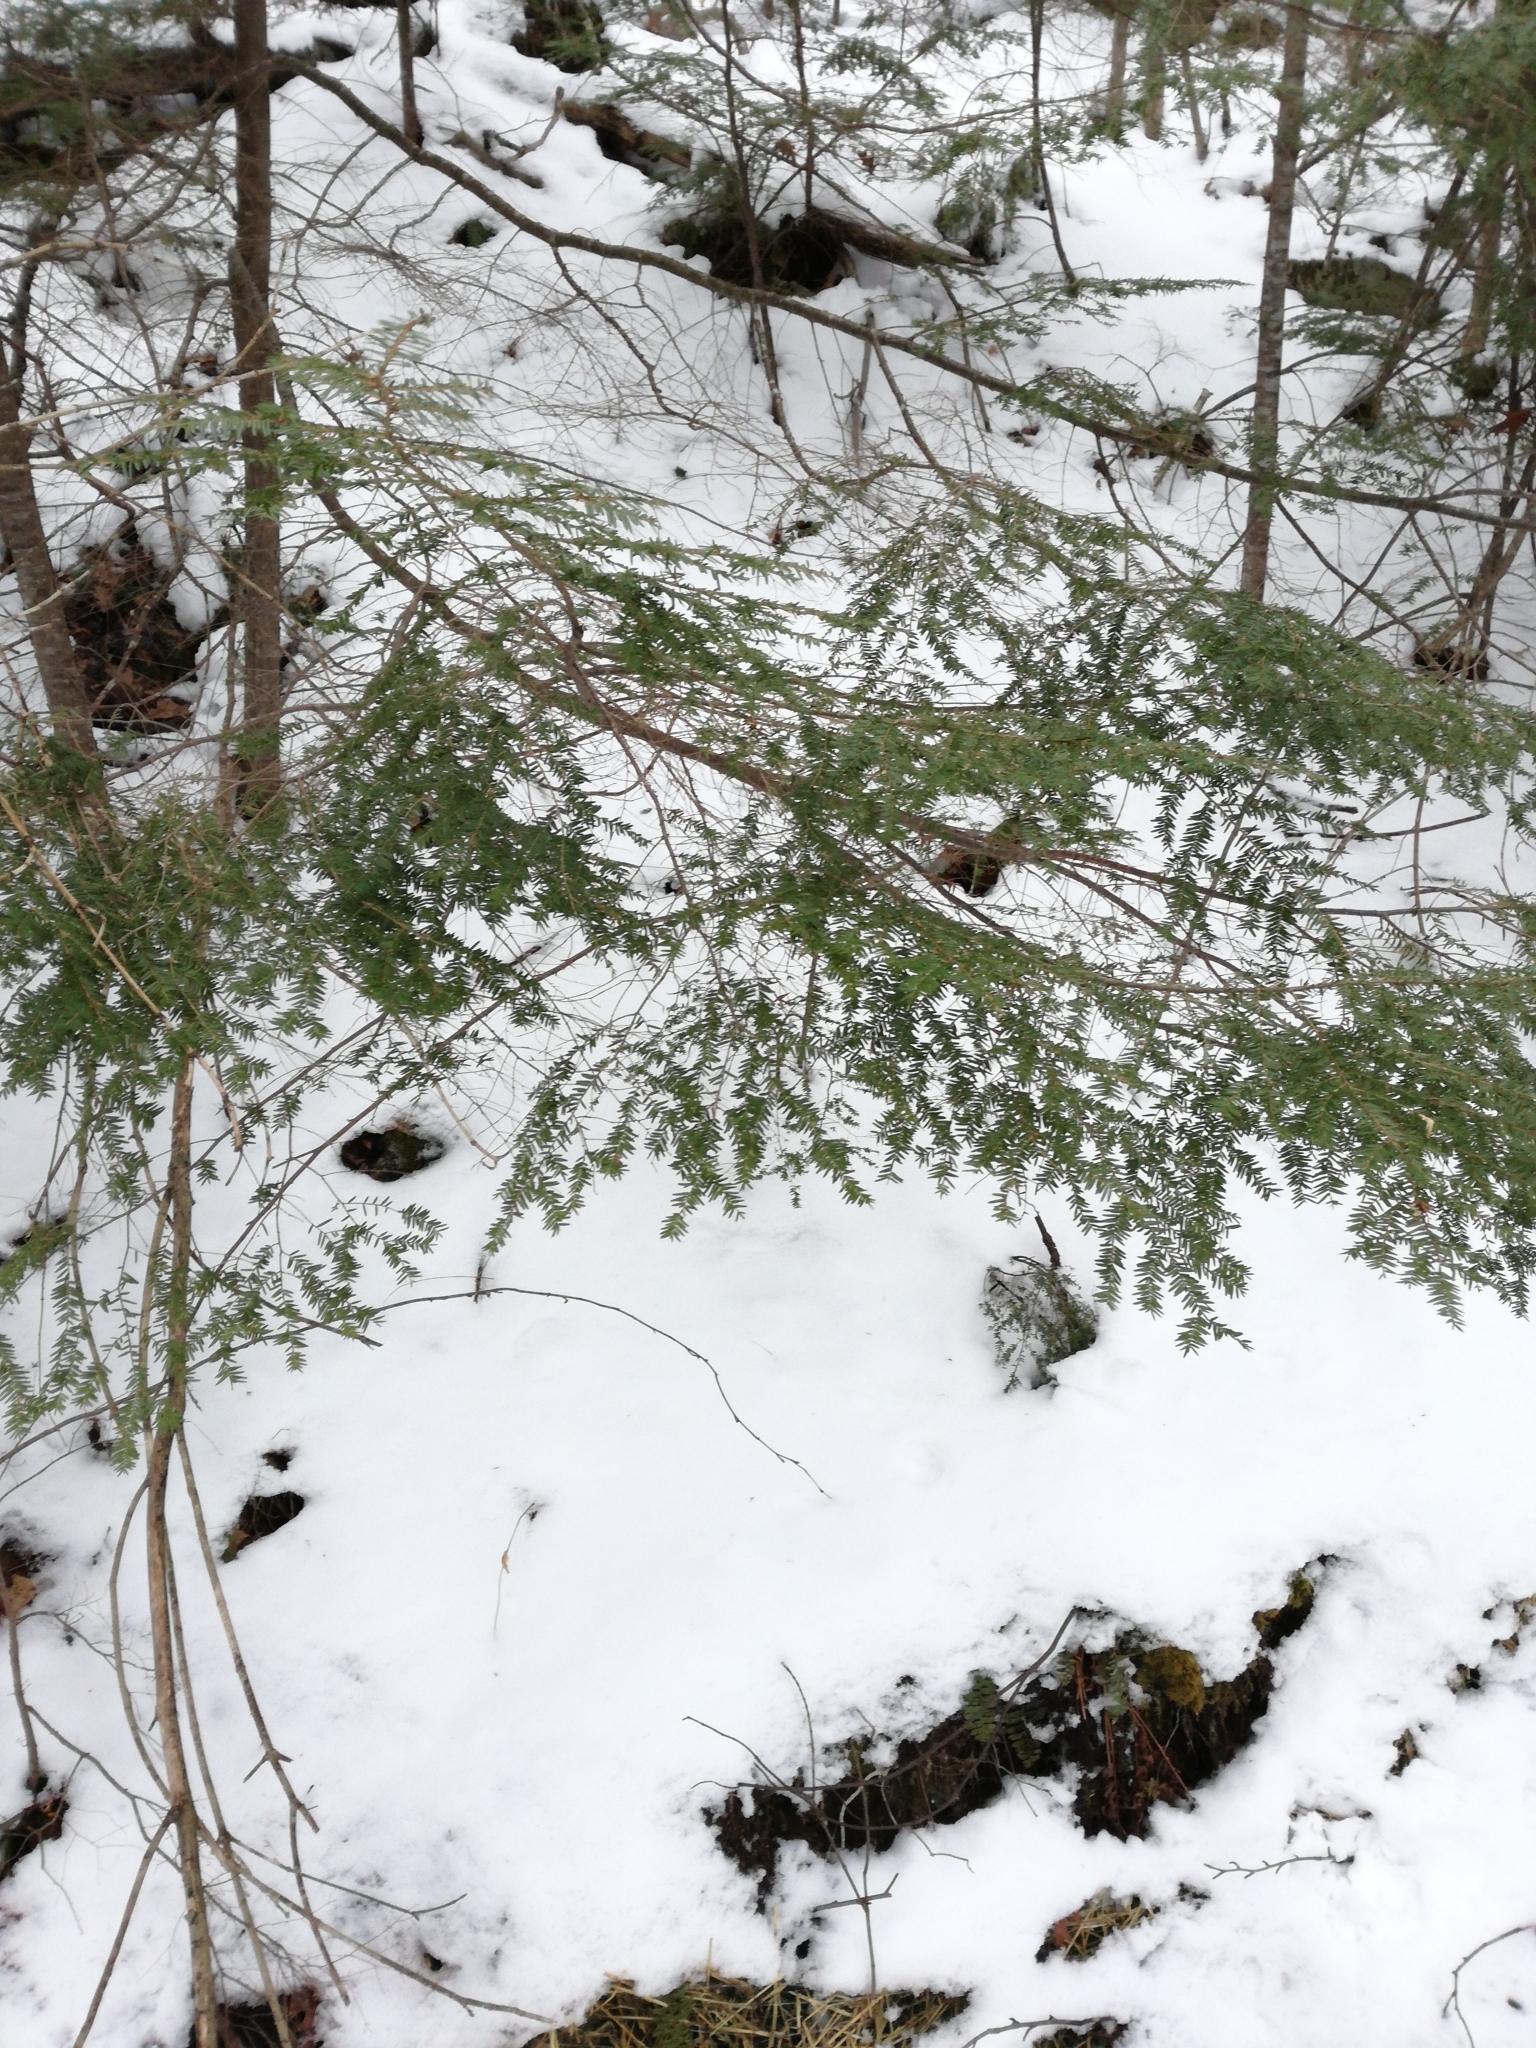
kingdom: Plantae
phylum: Tracheophyta
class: Pinopsida
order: Pinales
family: Pinaceae
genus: Tsuga
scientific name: Tsuga canadensis
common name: Eastern hemlock
